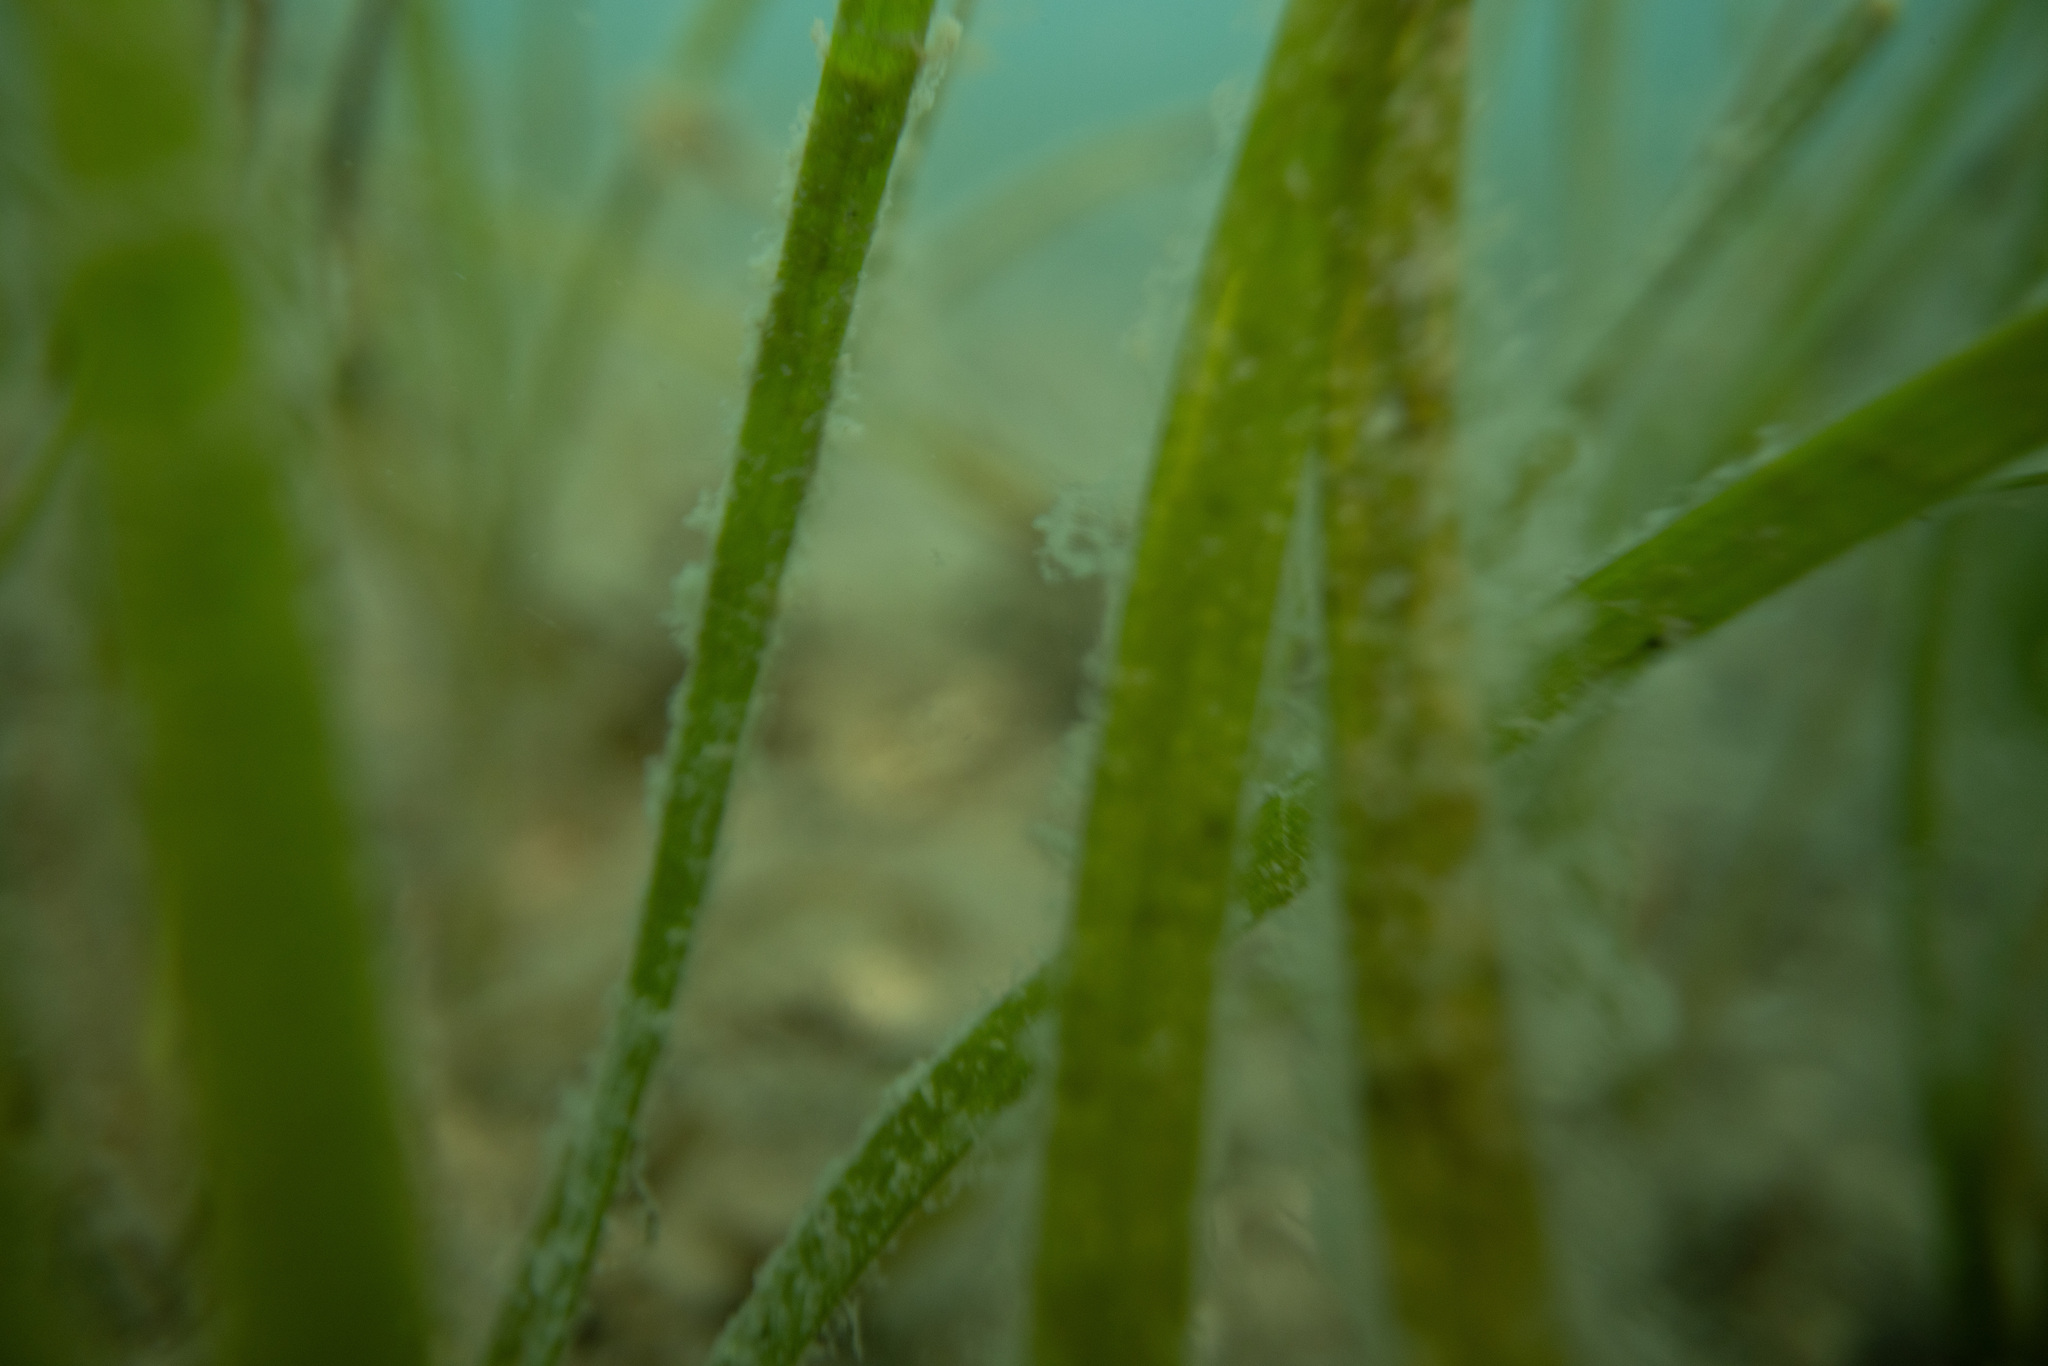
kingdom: Plantae
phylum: Tracheophyta
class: Liliopsida
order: Alismatales
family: Zosteraceae
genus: Zostera
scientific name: Zostera novazelandica
